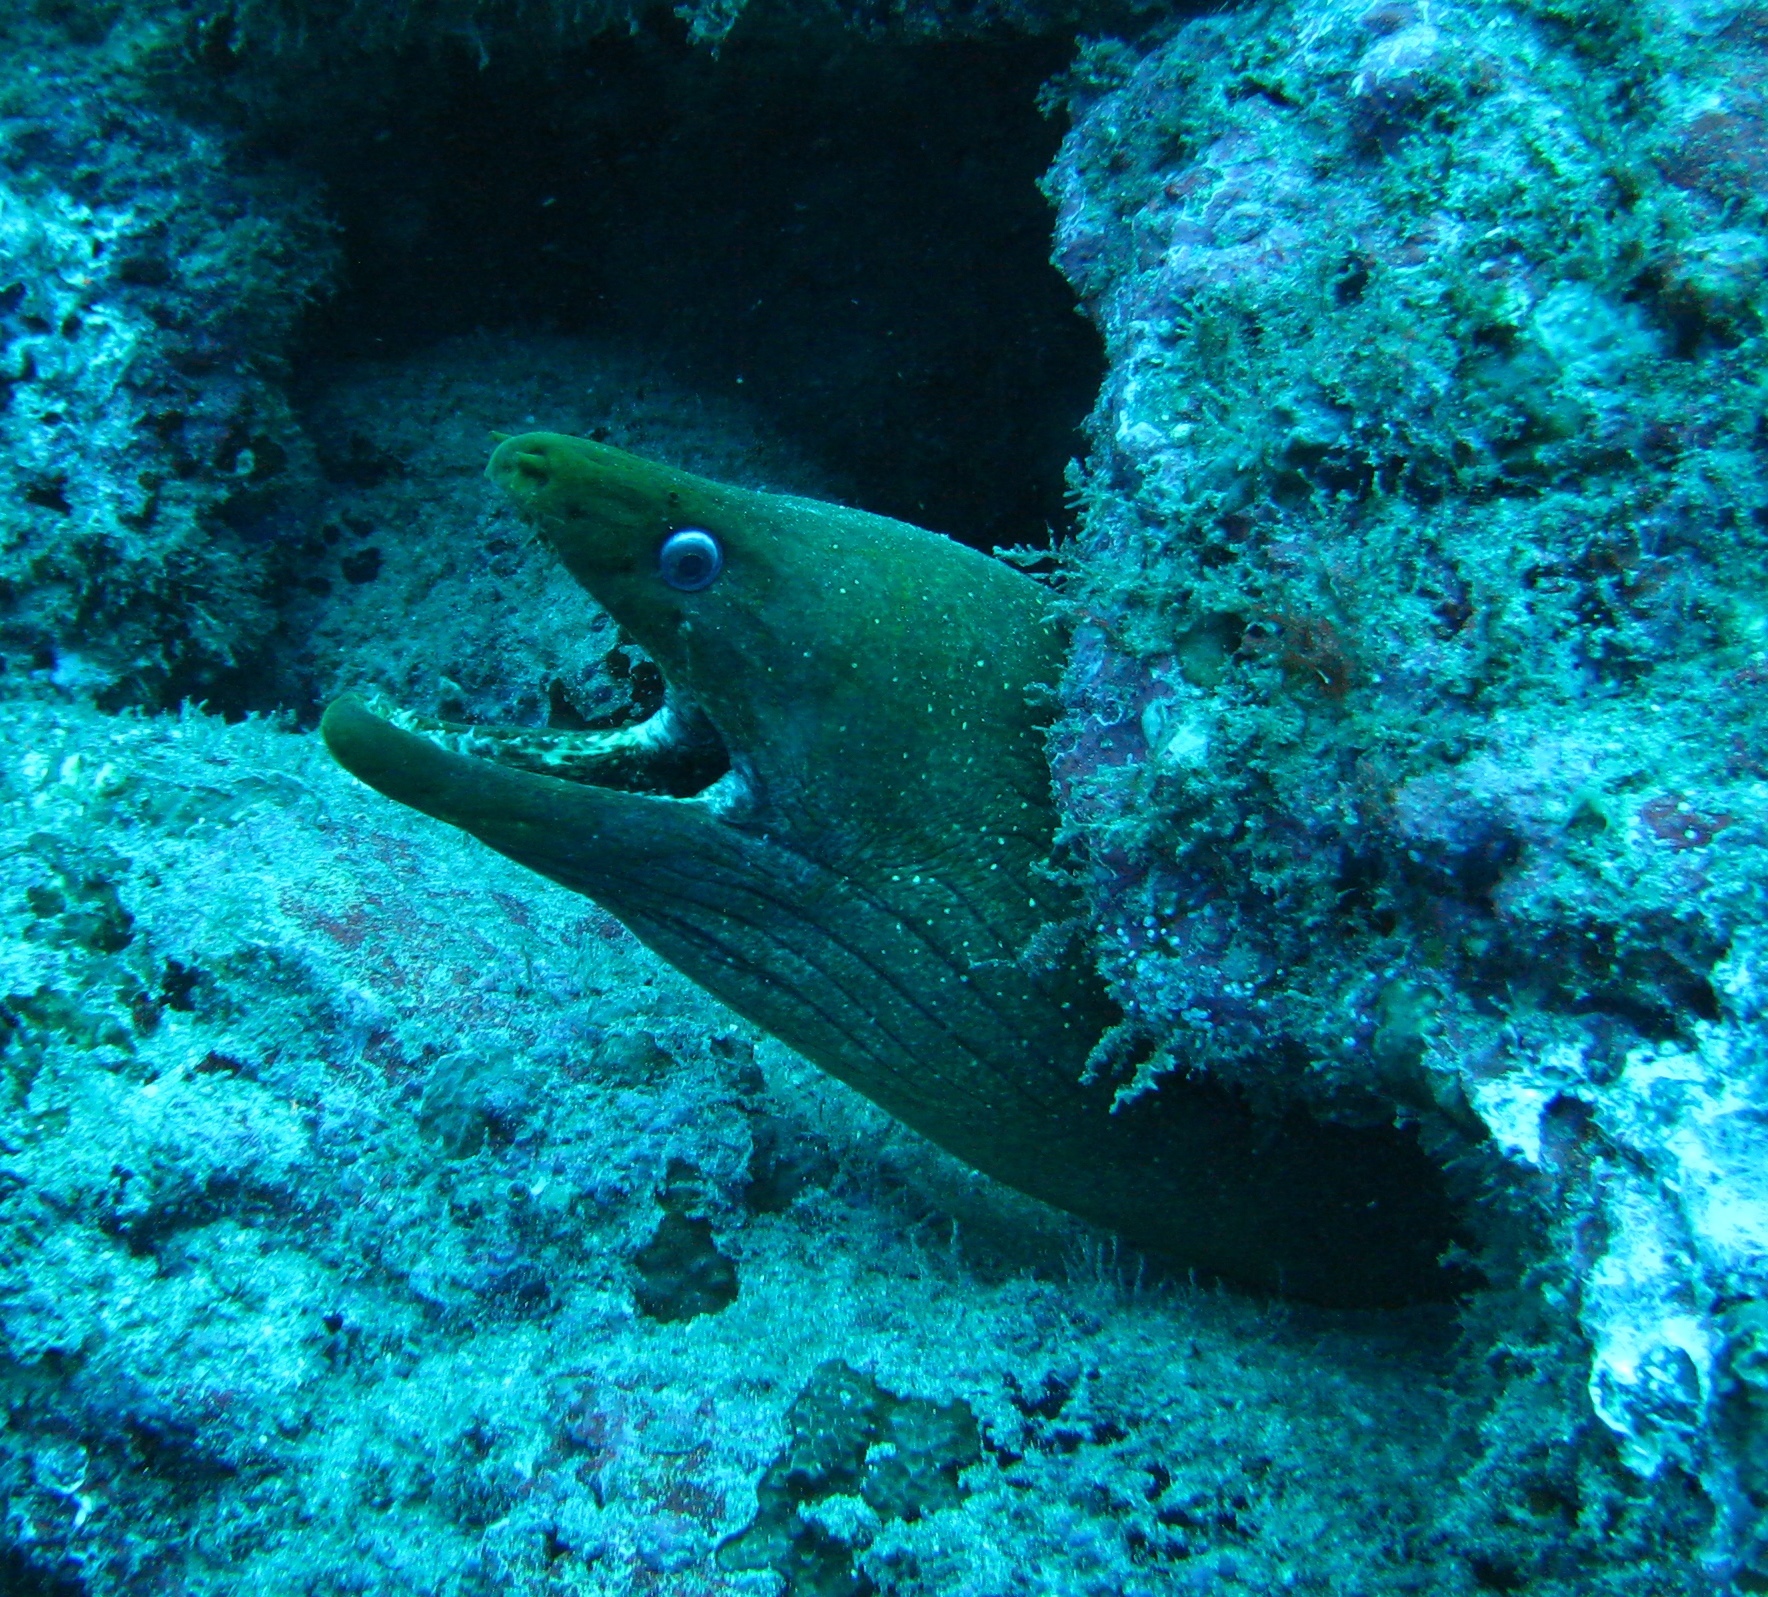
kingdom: Animalia
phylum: Chordata
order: Anguilliformes
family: Muraenidae
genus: Gymnothorax
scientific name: Gymnothorax castaneus
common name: Chestnut moray
